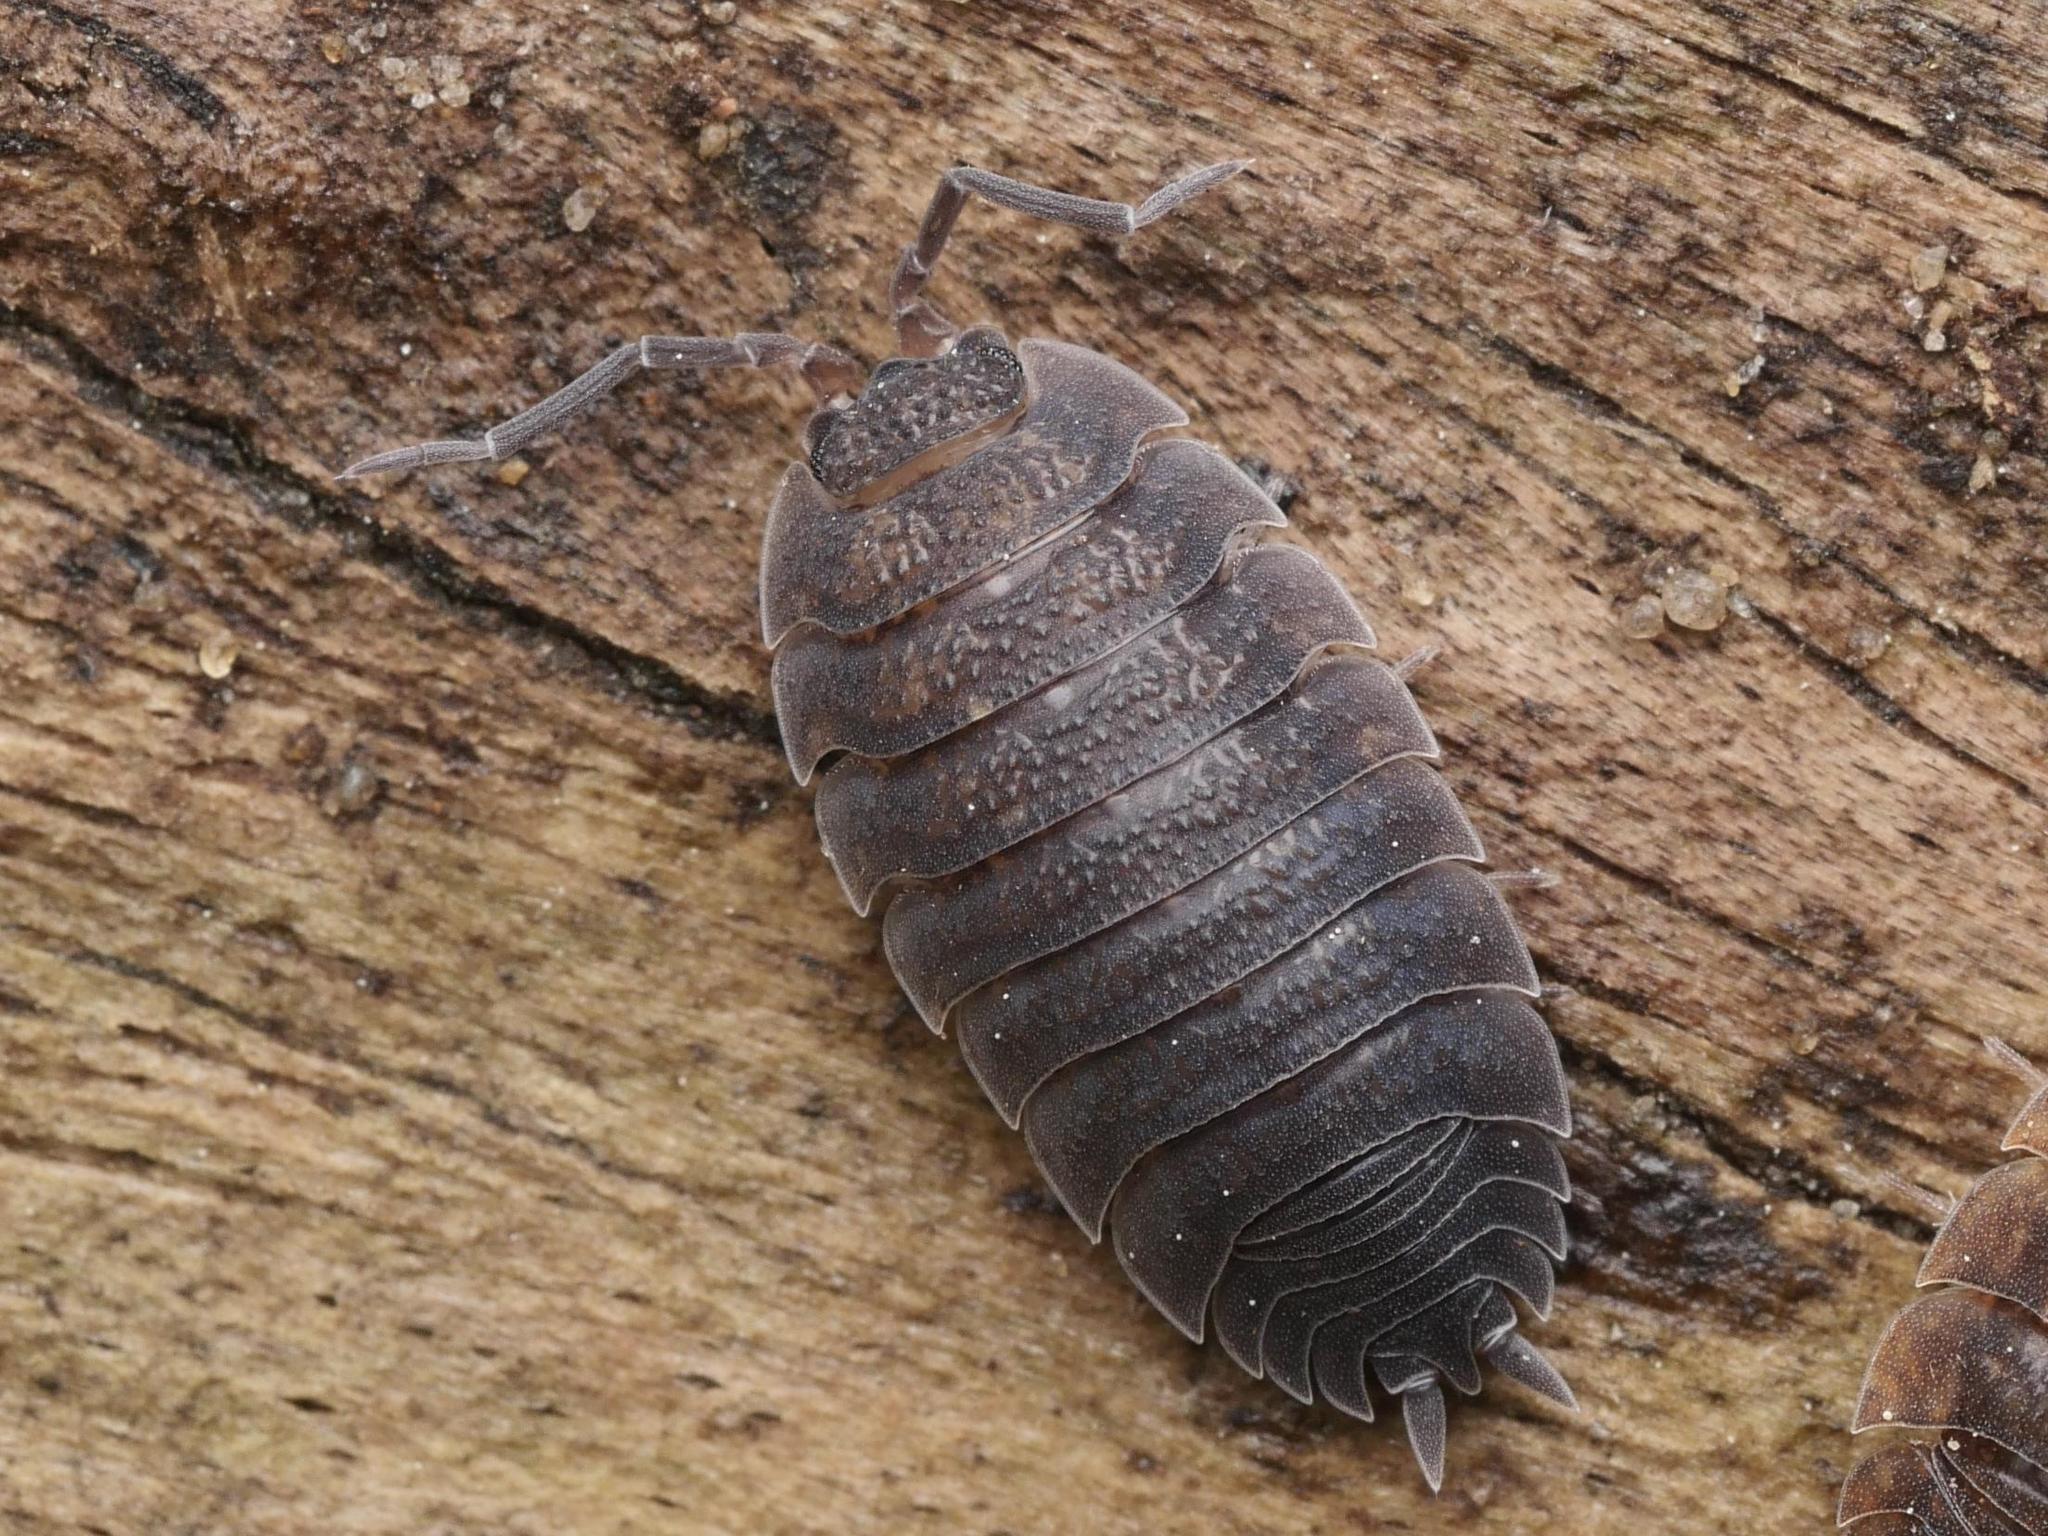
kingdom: Animalia
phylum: Arthropoda
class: Malacostraca
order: Isopoda
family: Porcellionidae
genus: Porcellio
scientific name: Porcellio scaber
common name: Common rough woodlouse
